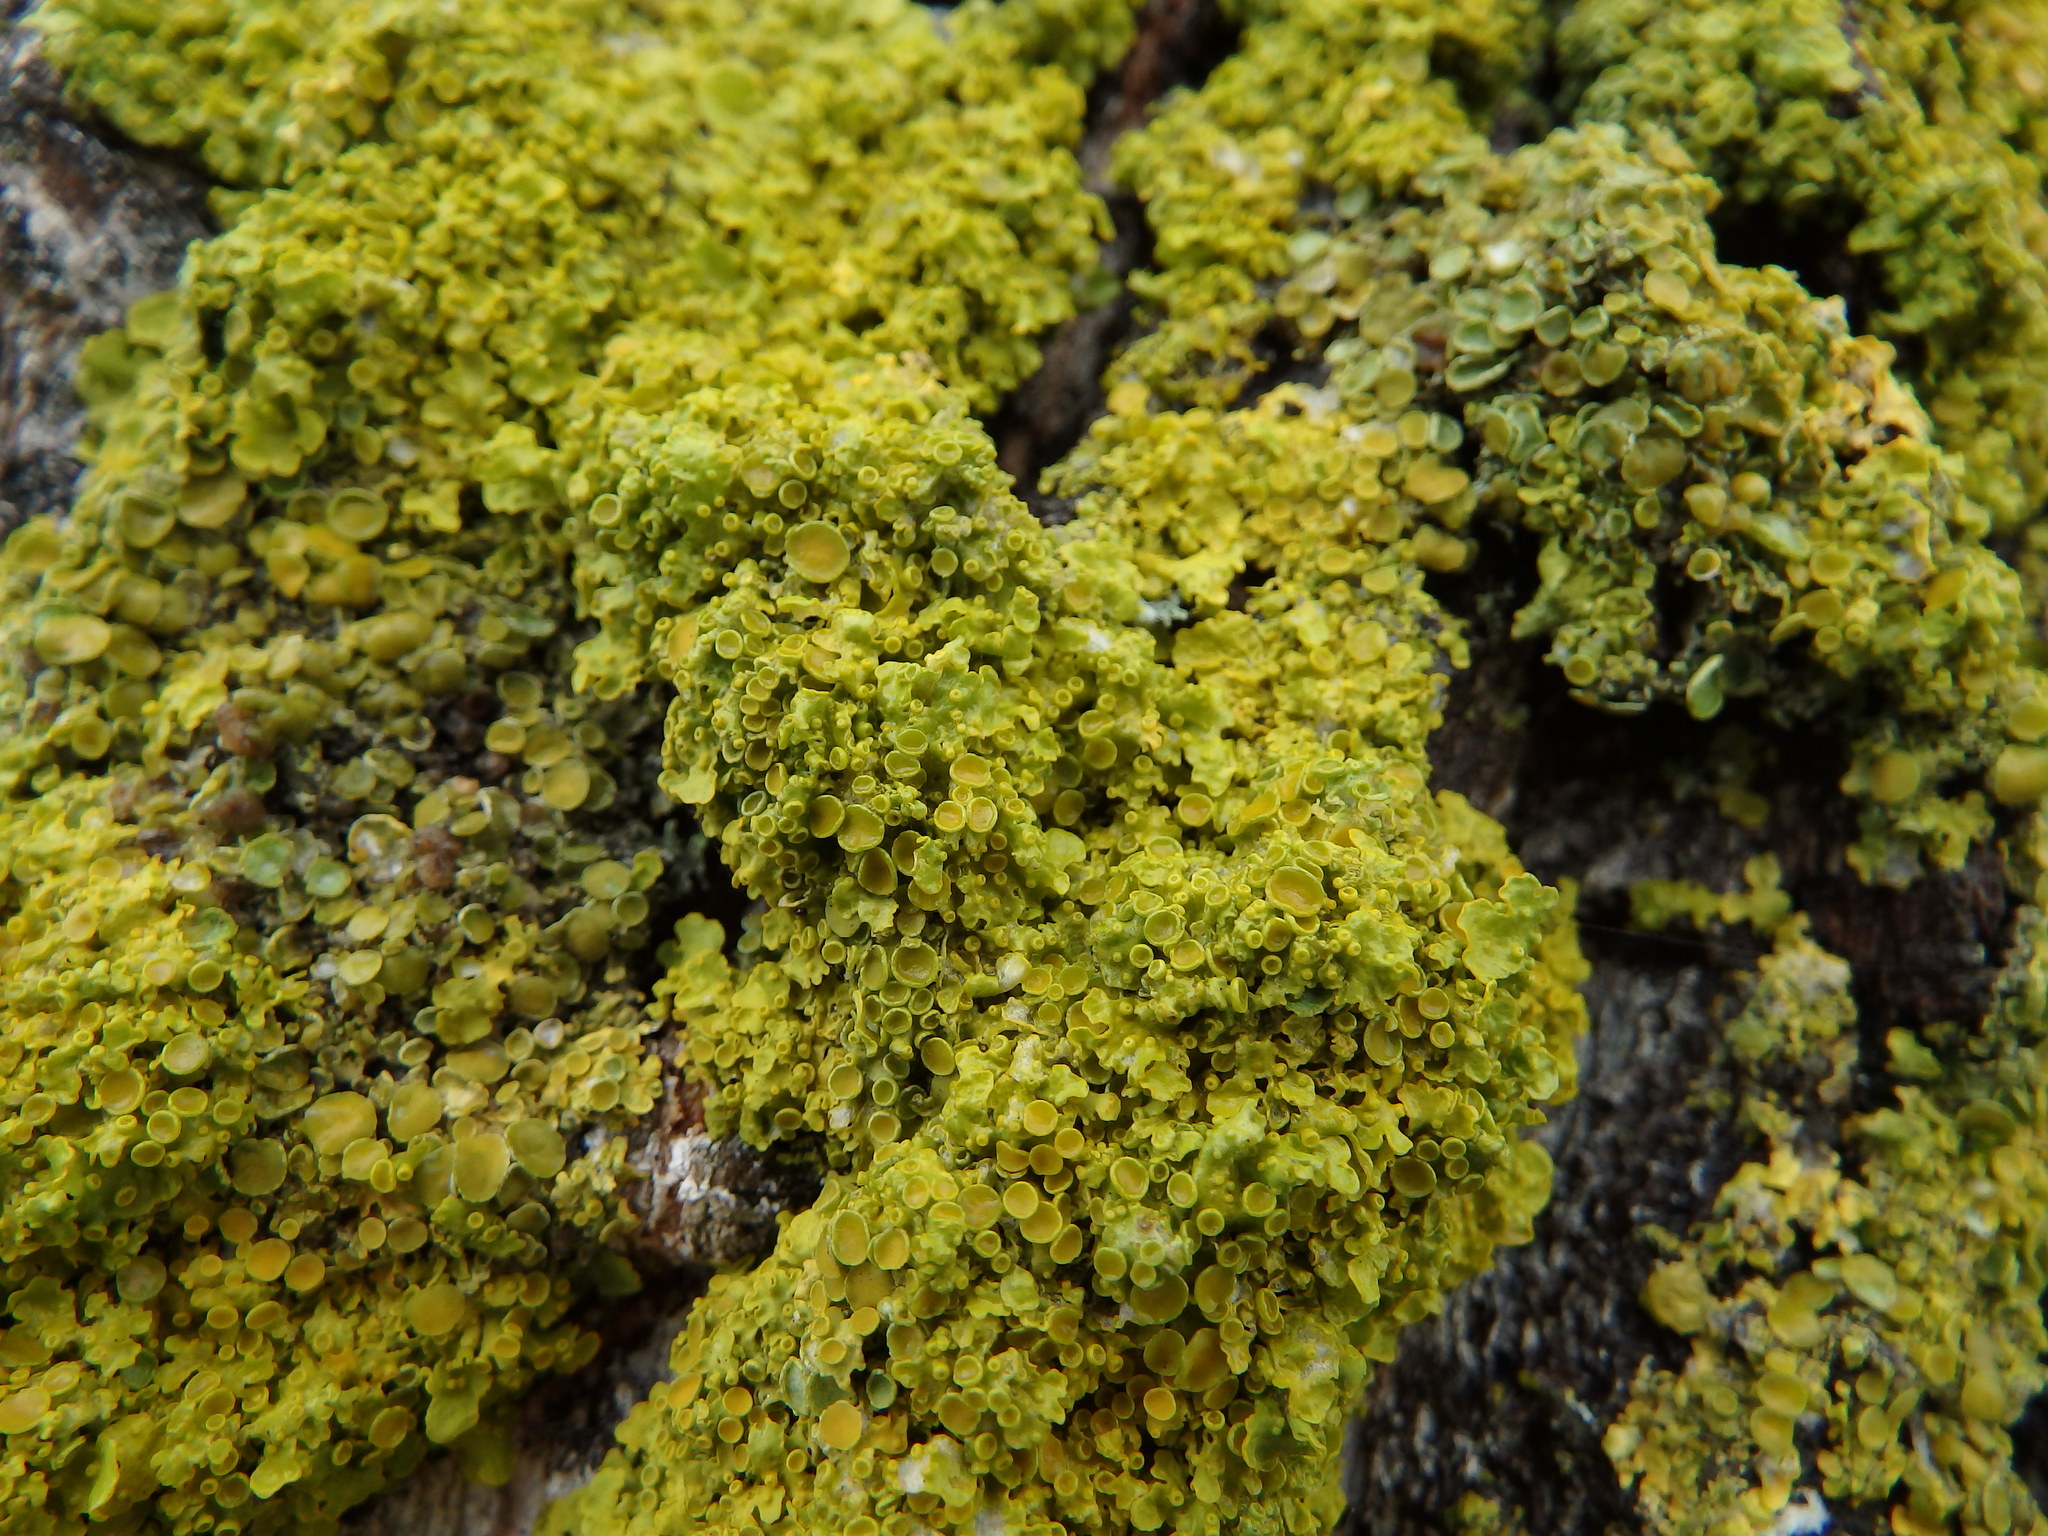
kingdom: Fungi
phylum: Ascomycota
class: Lecanoromycetes
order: Teloschistales
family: Teloschistaceae
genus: Xanthoria
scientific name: Xanthoria parietina
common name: Common orange lichen
